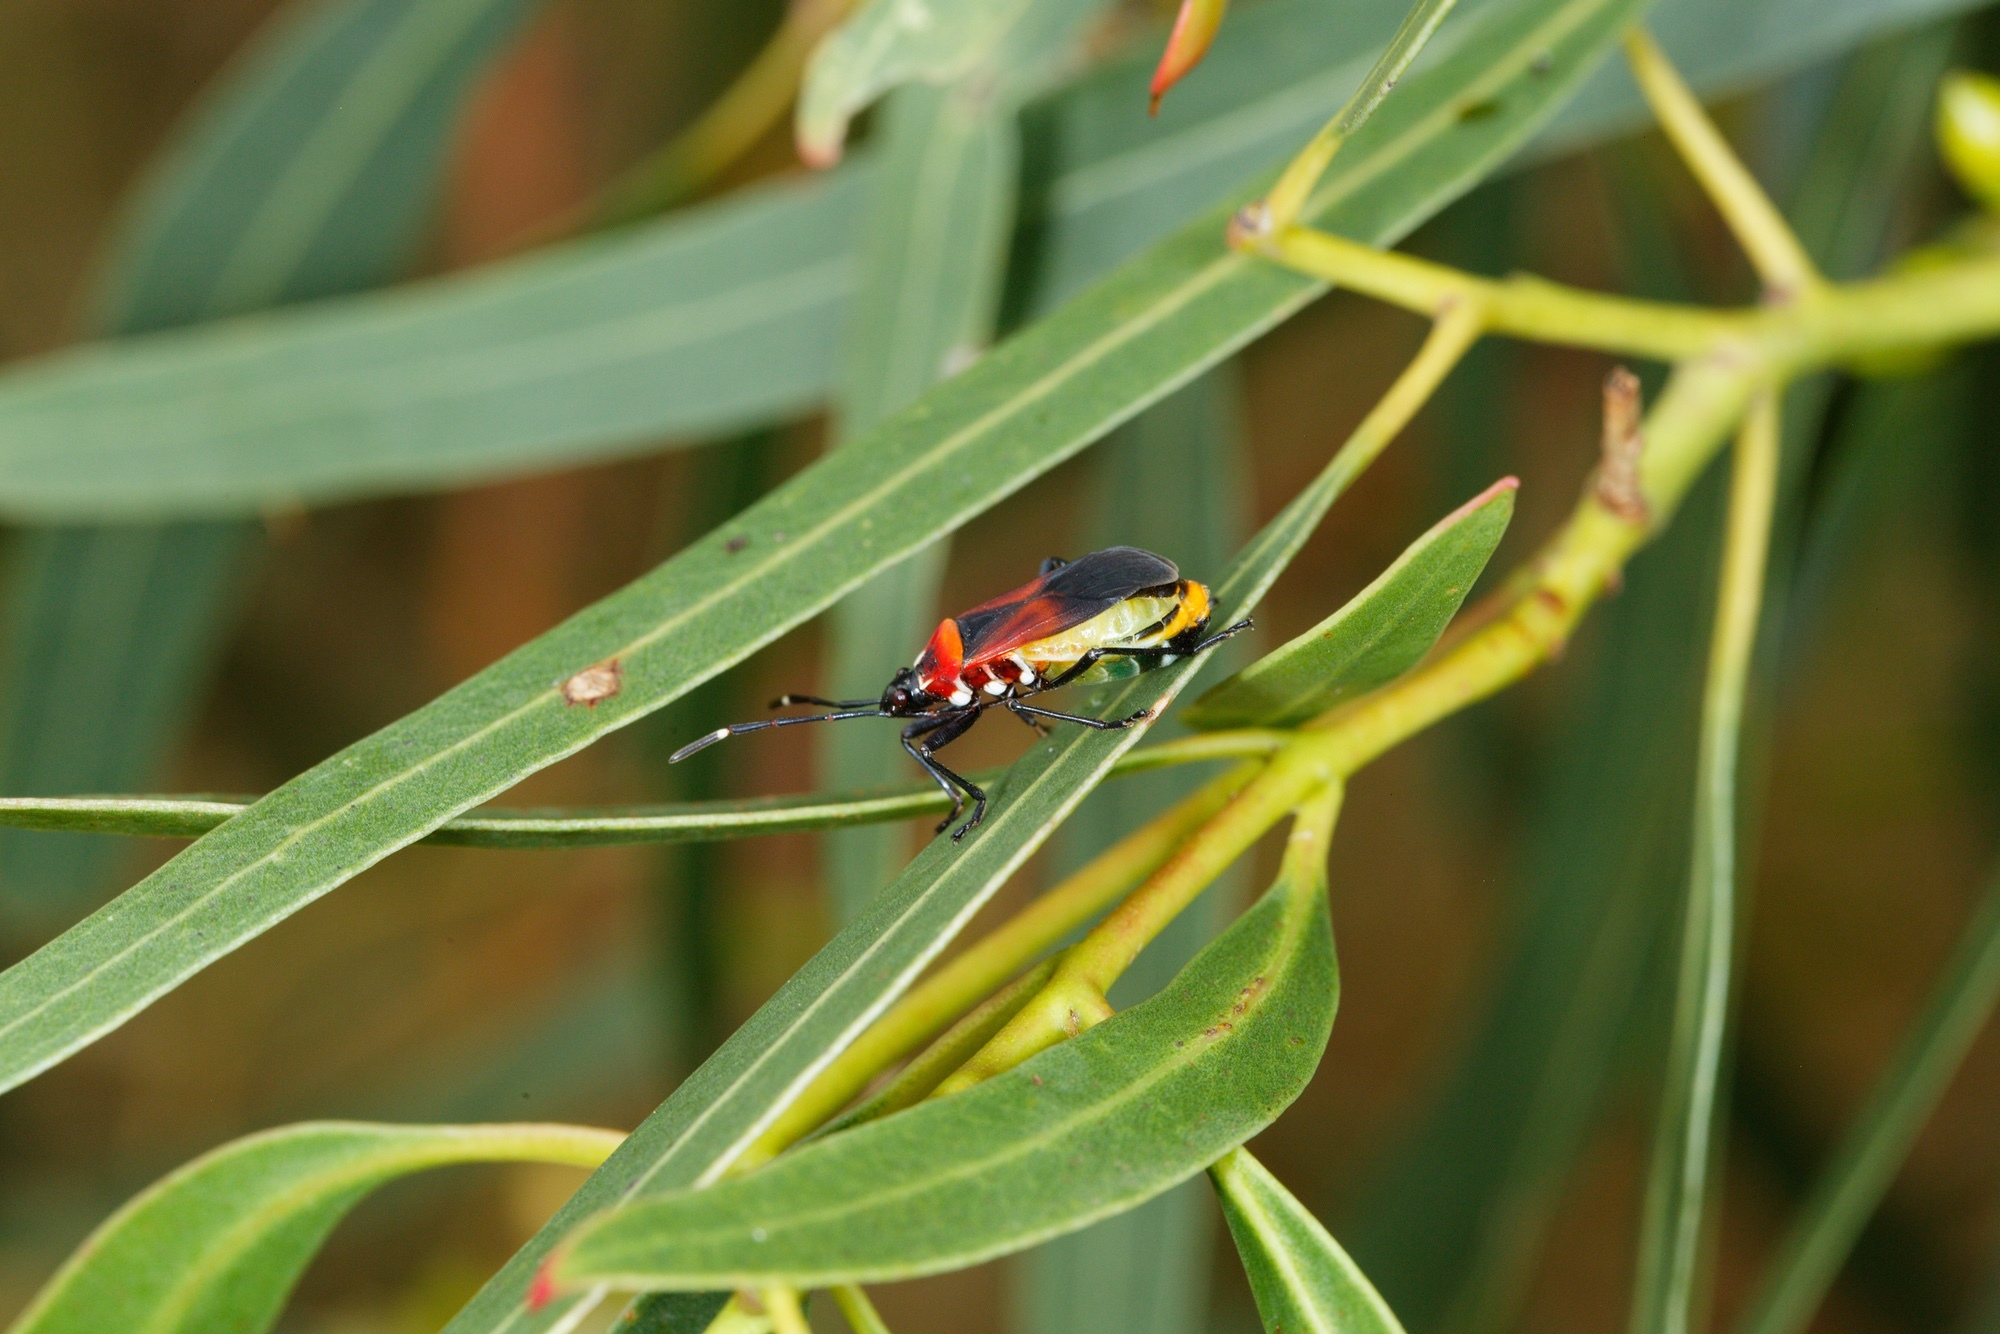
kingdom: Animalia
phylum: Arthropoda
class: Insecta
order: Hemiptera
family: Pyrrhocoridae
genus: Dindymus
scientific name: Dindymus
